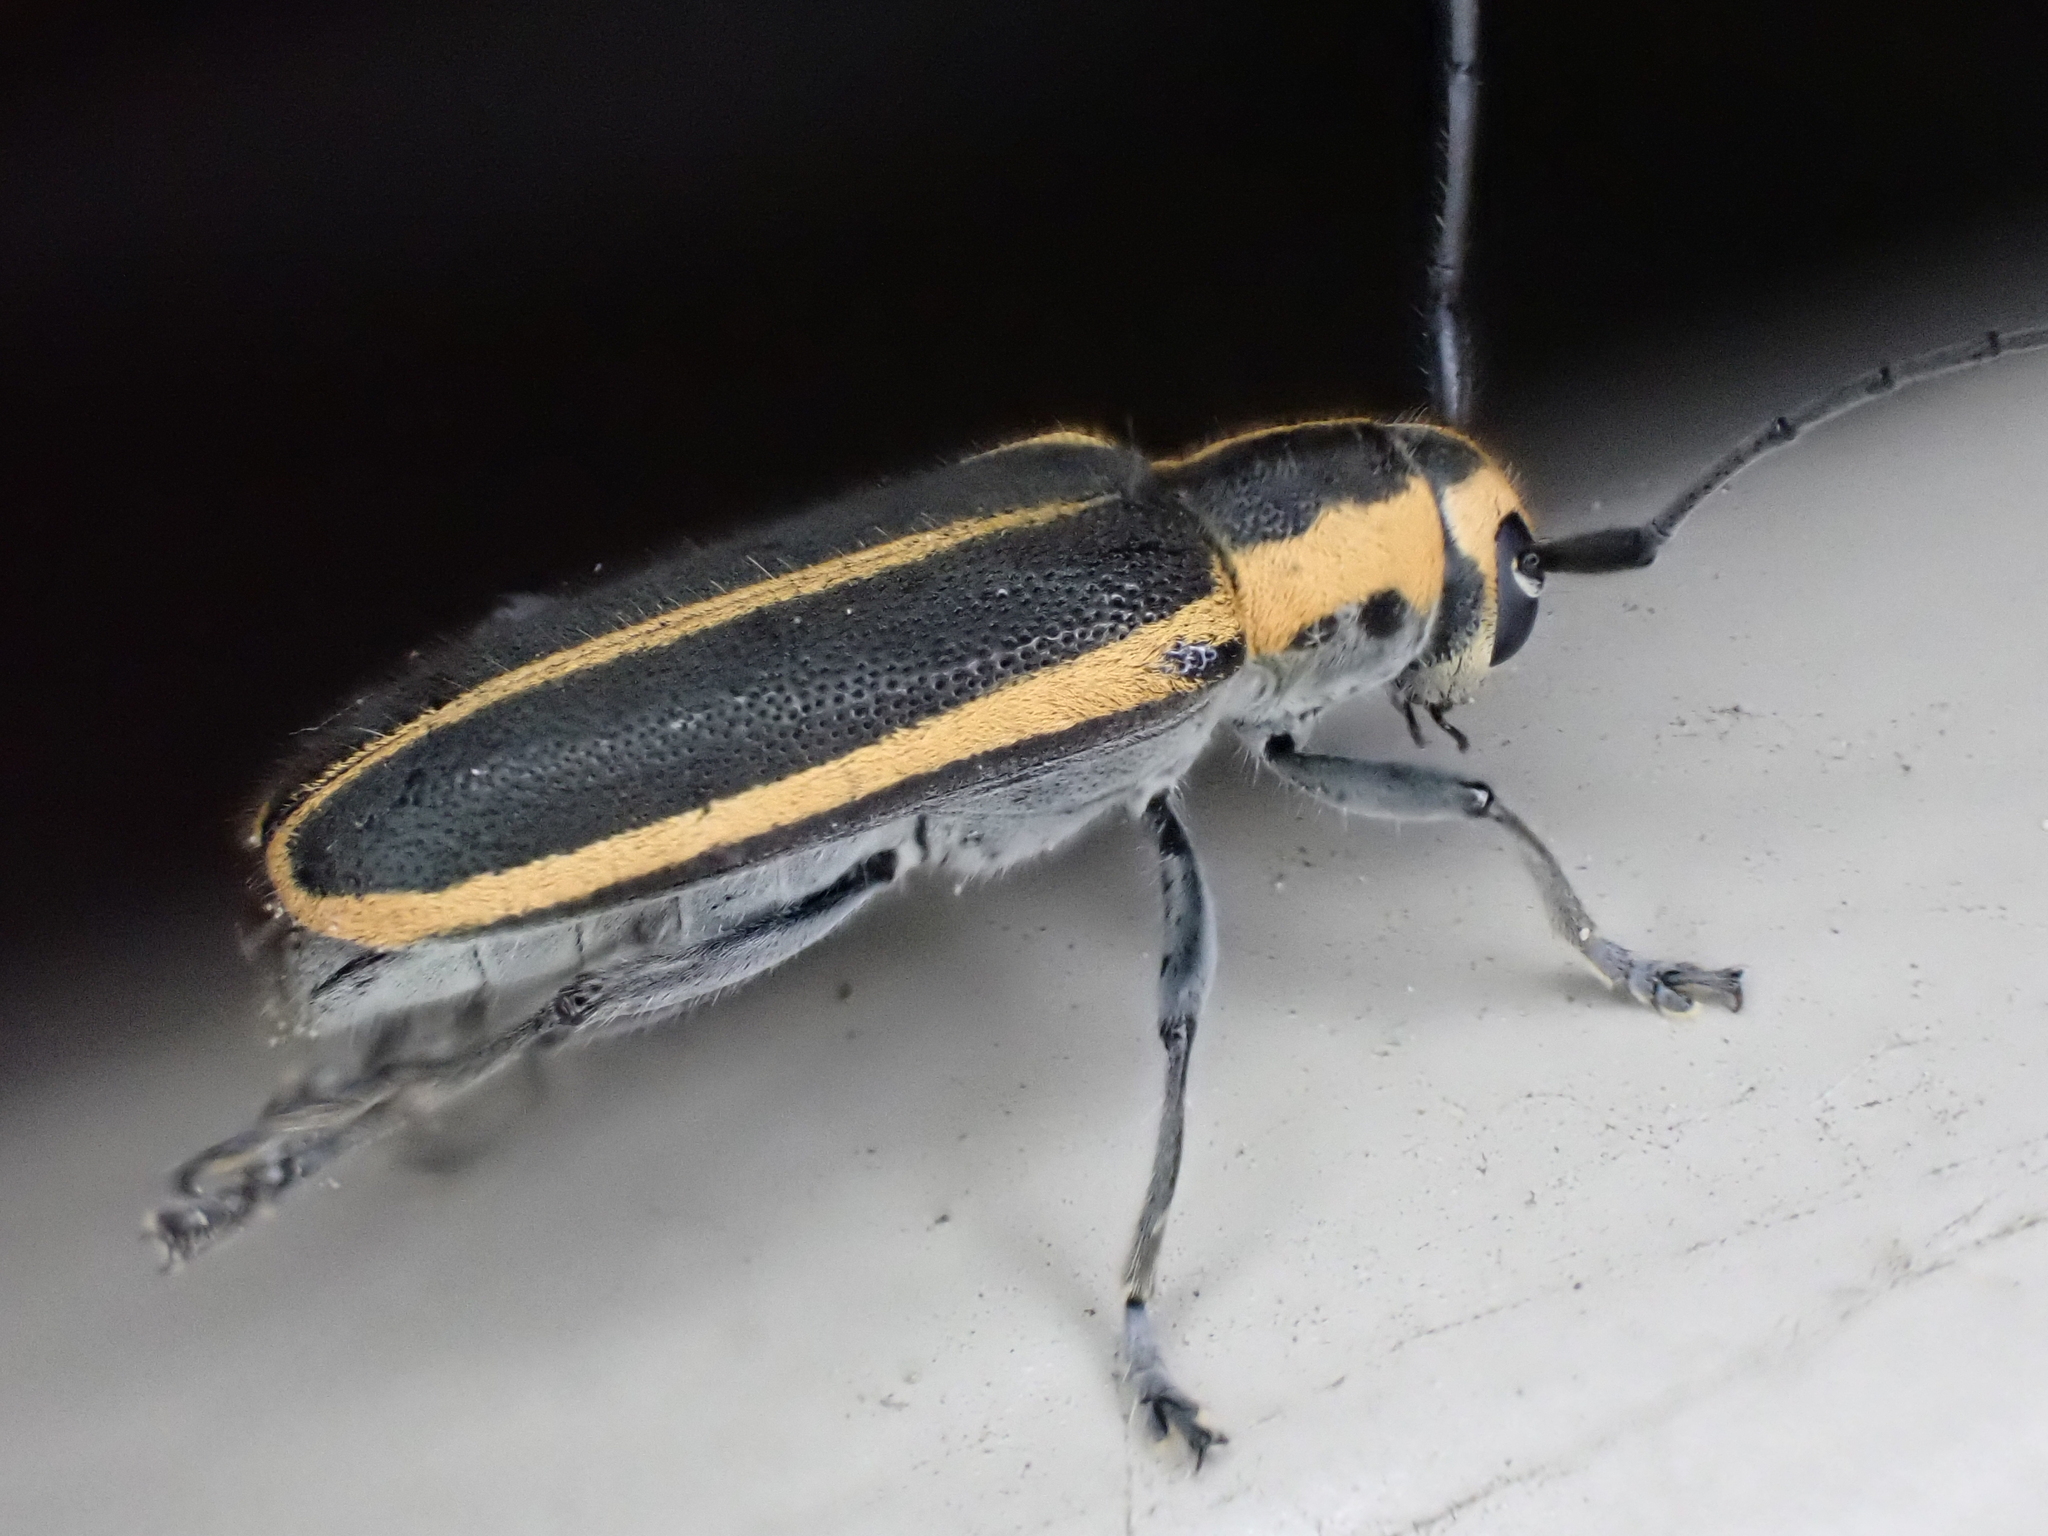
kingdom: Animalia
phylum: Arthropoda
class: Insecta
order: Coleoptera
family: Cerambycidae
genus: Saperda
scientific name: Saperda lateralis
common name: Red-edged saperda
